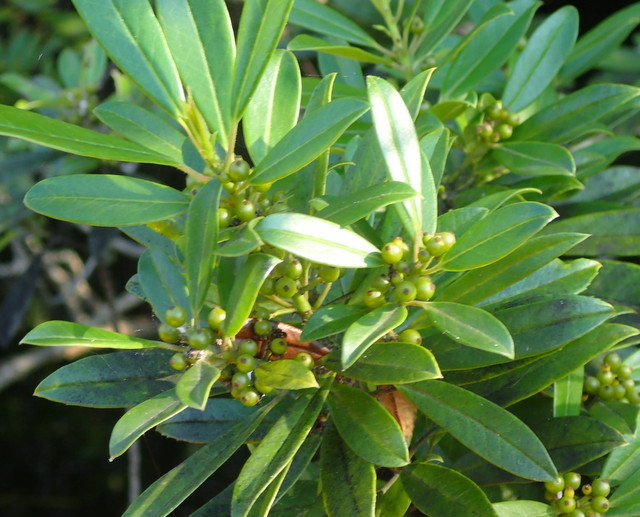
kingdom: Plantae
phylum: Tracheophyta
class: Magnoliopsida
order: Aquifoliales
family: Aquifoliaceae
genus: Ilex
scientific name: Ilex cassine
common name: Dahoon
